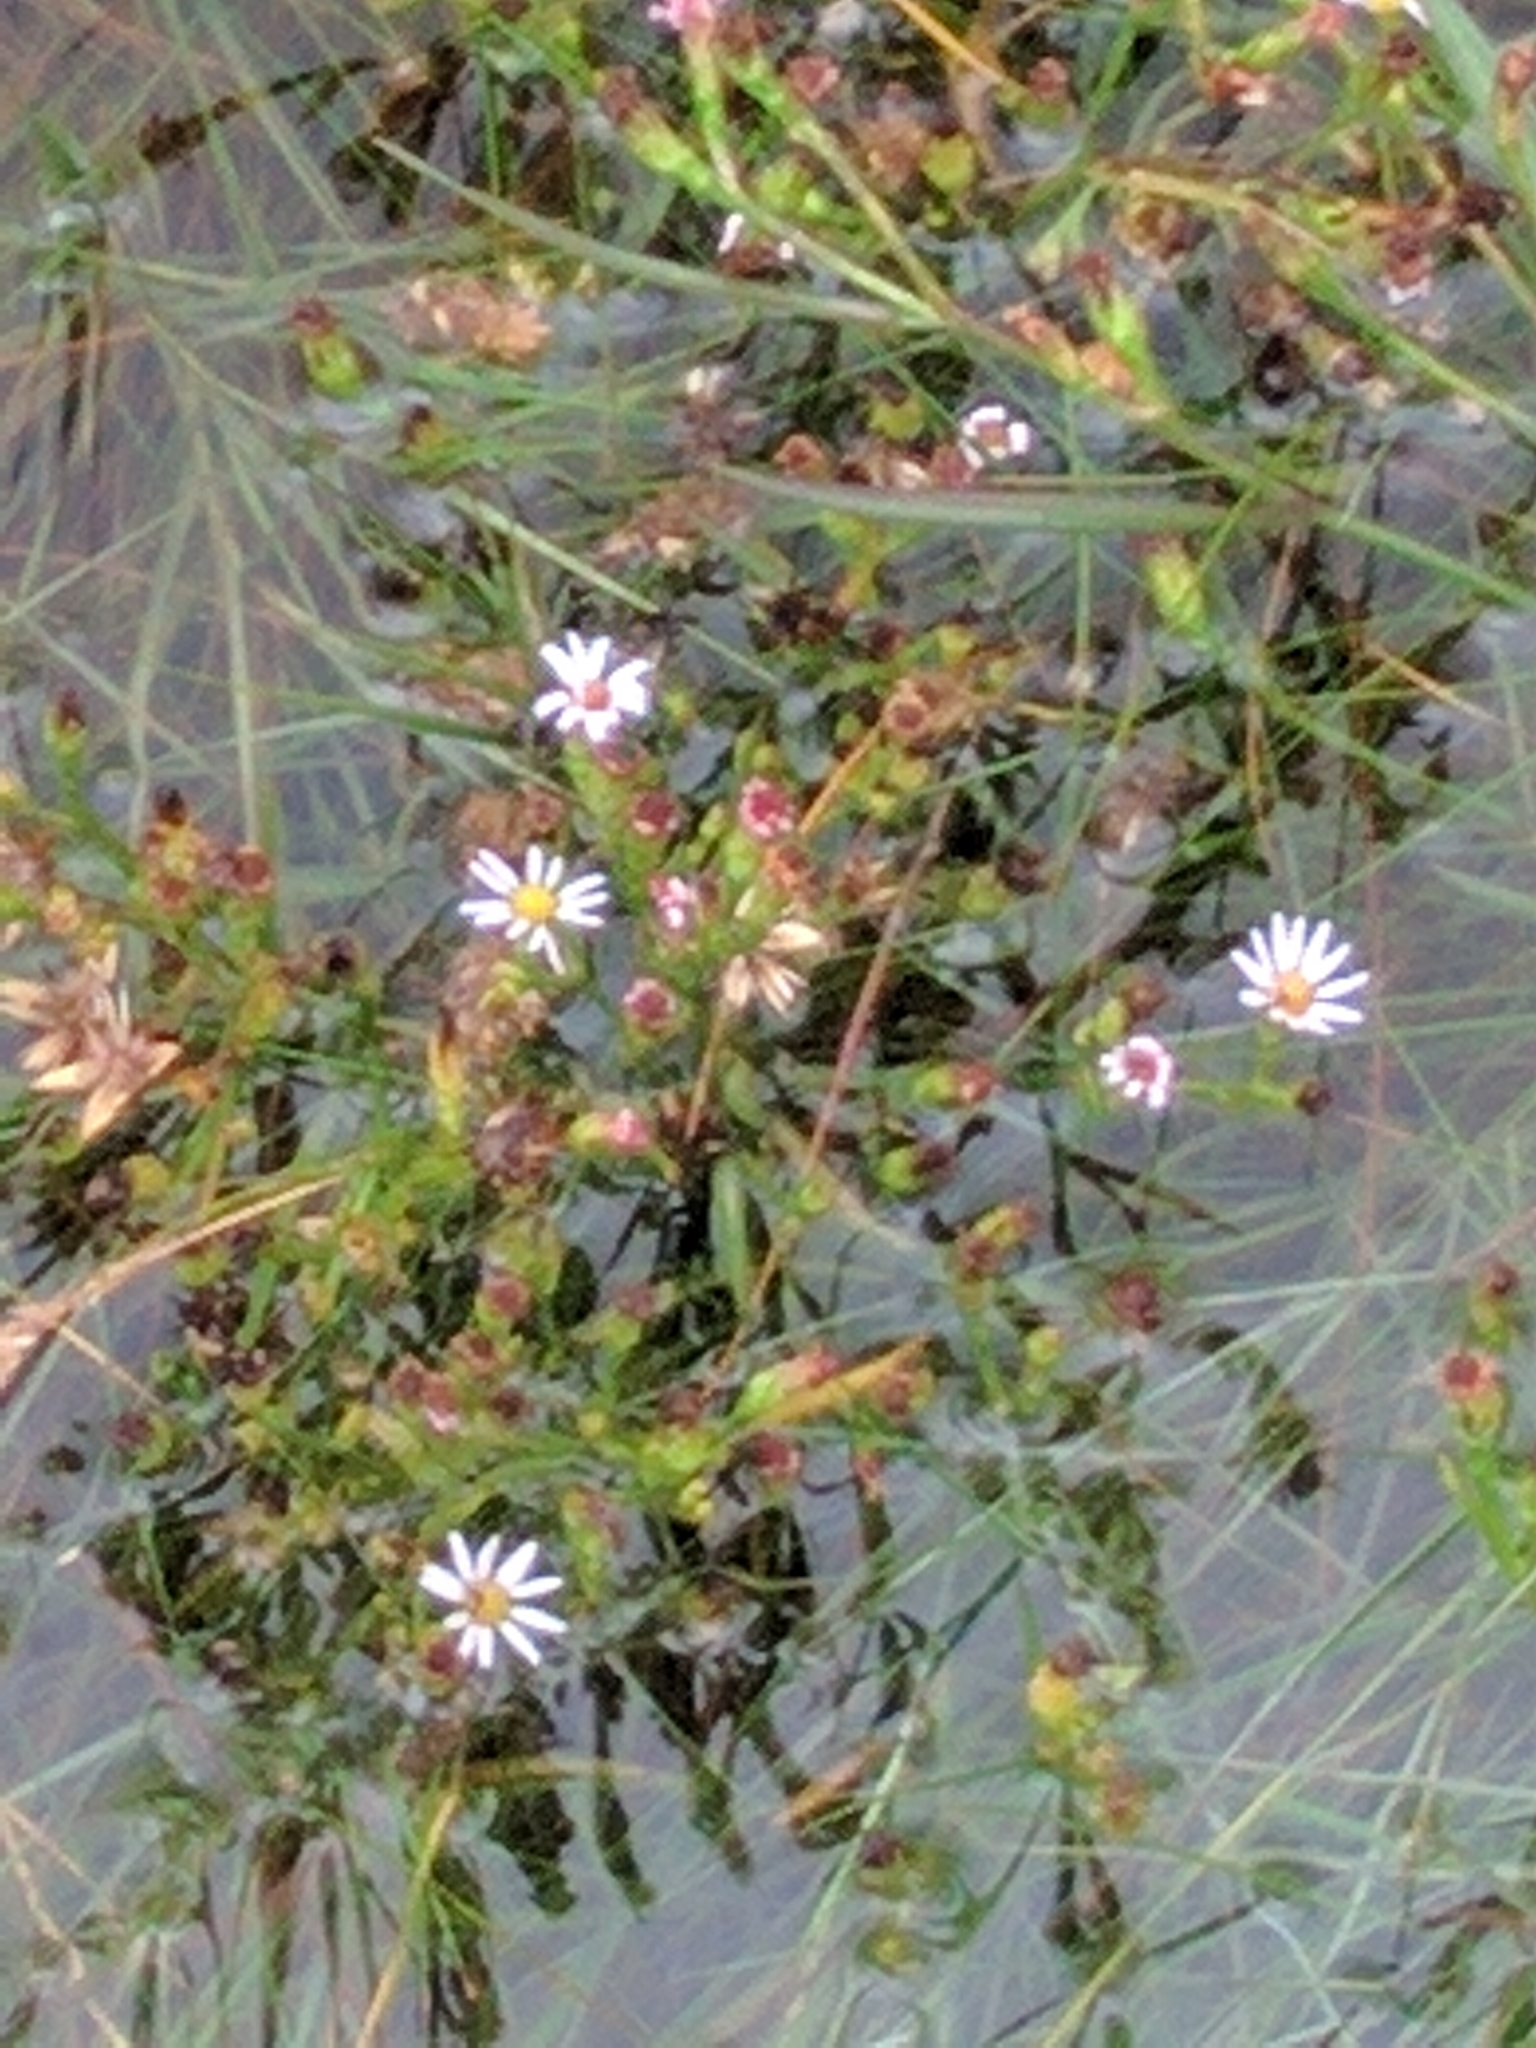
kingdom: Plantae
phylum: Tracheophyta
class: Magnoliopsida
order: Asterales
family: Asteraceae
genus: Symphyotrichum
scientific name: Symphyotrichum tenuifolium
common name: Perennial salt-marsh aster
